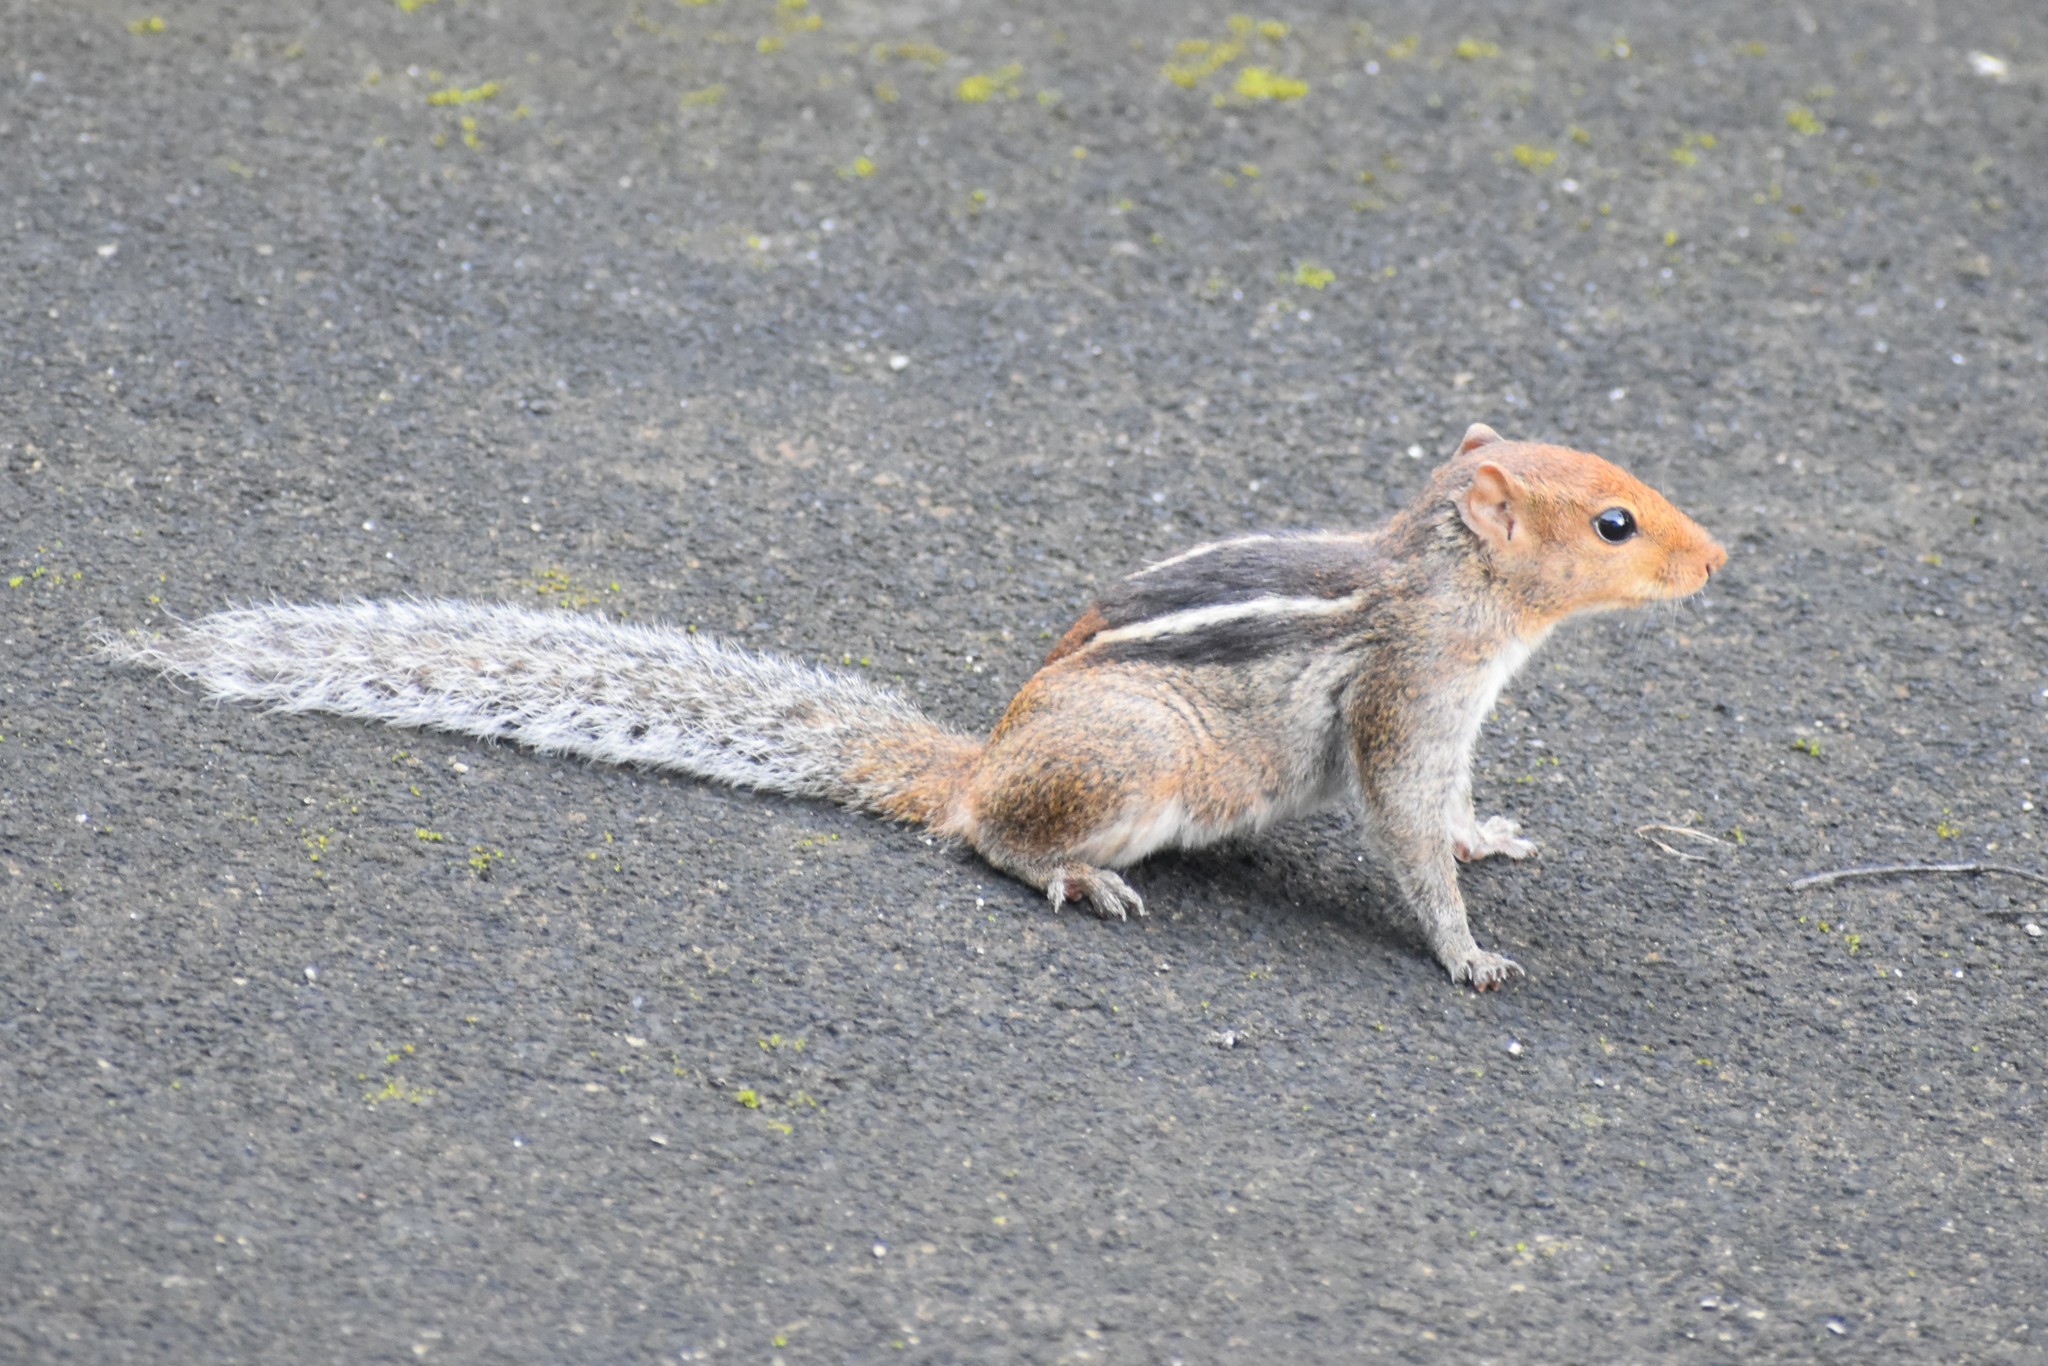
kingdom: Animalia
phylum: Chordata
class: Mammalia
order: Rodentia
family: Sciuridae
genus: Funambulus
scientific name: Funambulus tristriatus
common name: Jungle palm squirrel
